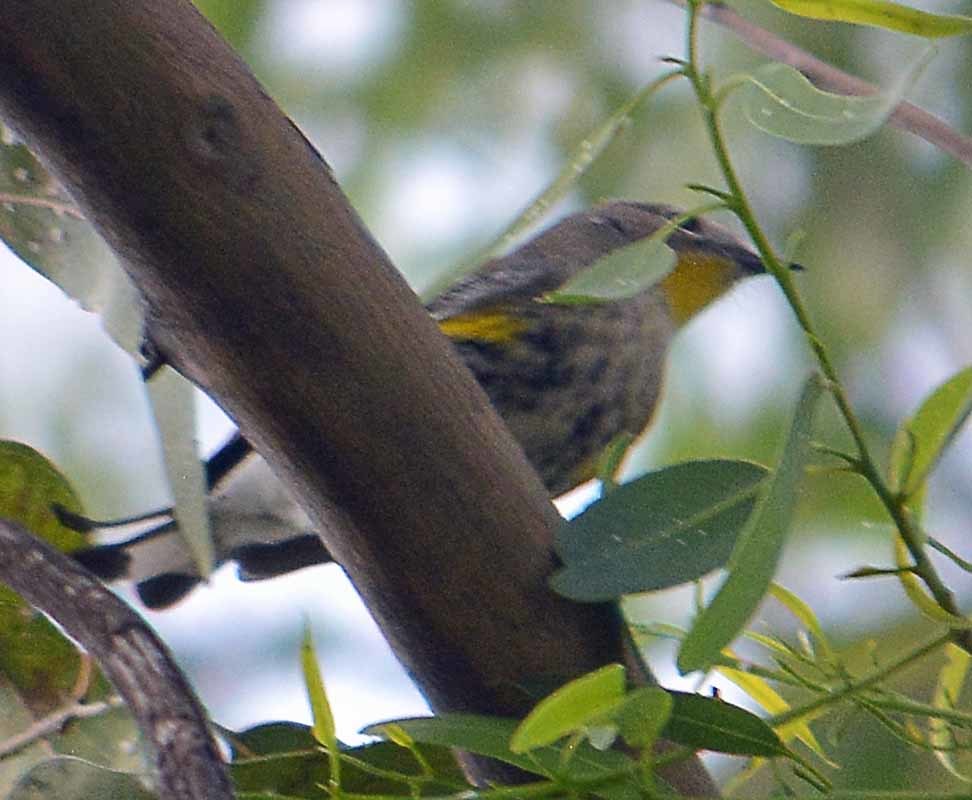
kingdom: Animalia
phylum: Chordata
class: Aves
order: Passeriformes
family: Parulidae
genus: Setophaga
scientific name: Setophaga coronata
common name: Myrtle warbler
